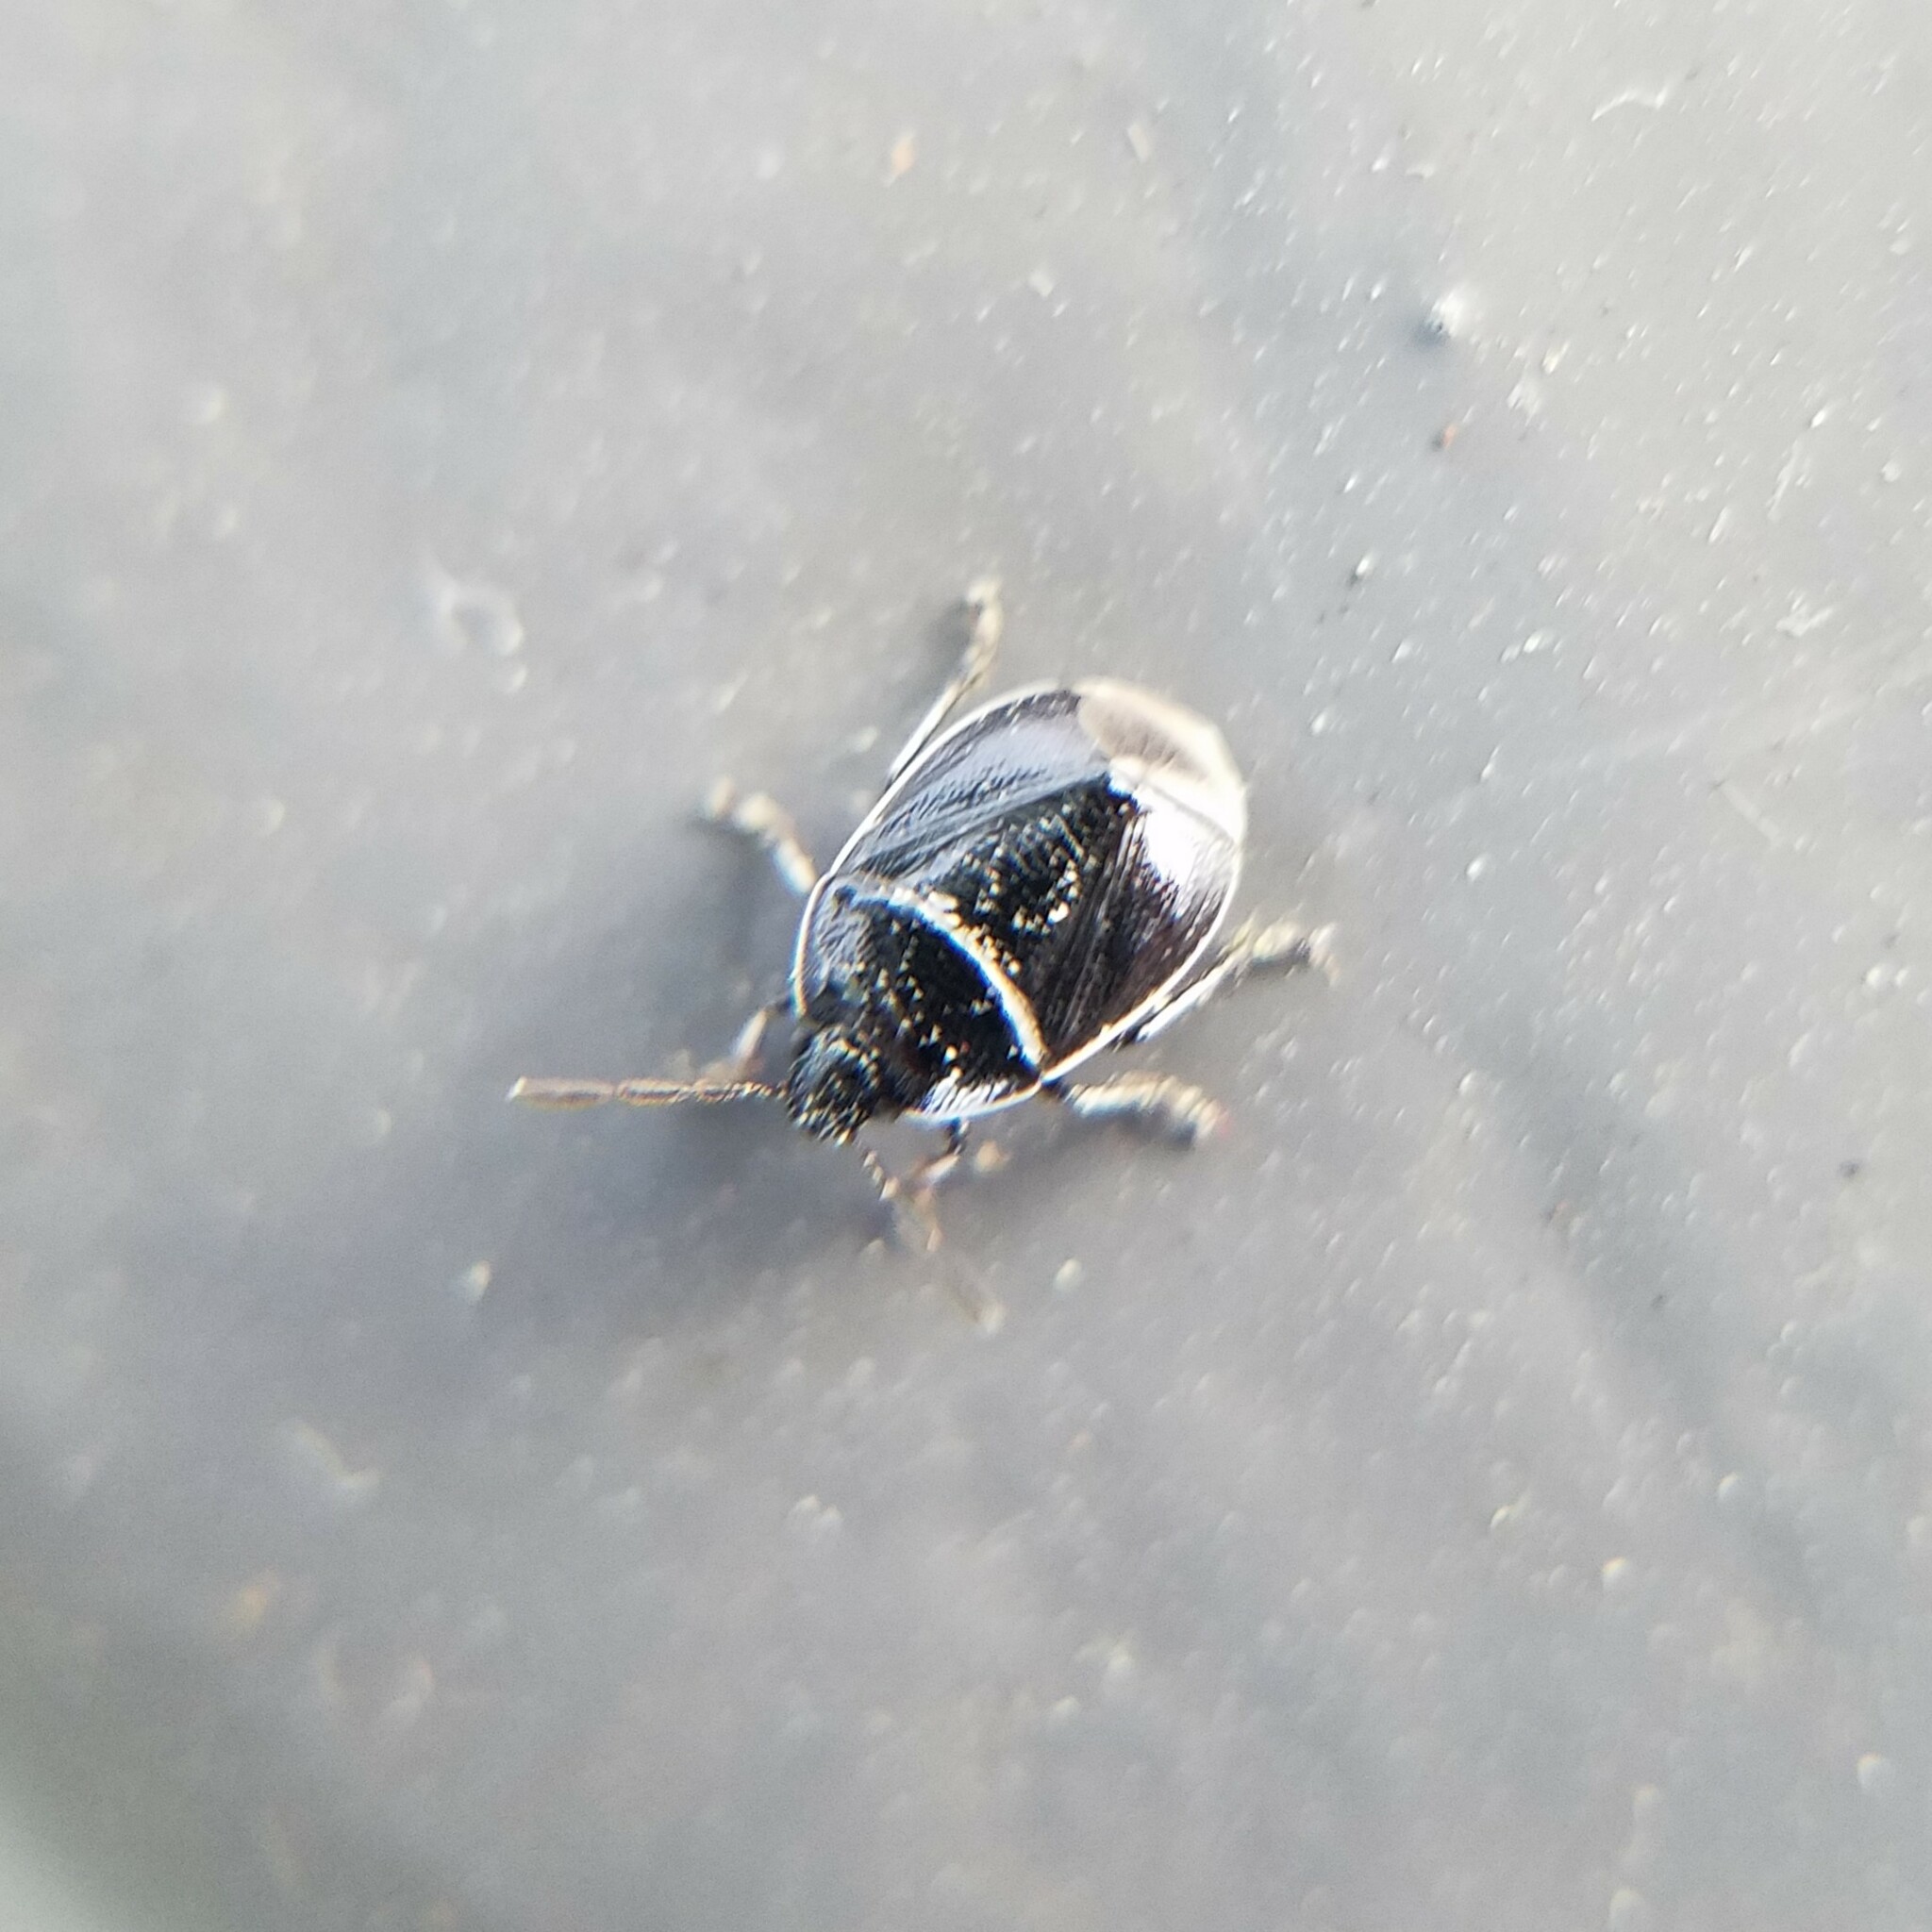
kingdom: Animalia
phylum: Arthropoda
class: Insecta
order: Hemiptera
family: Cydnidae
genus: Sehirus
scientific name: Sehirus cinctus
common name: White-margined burrower bug
